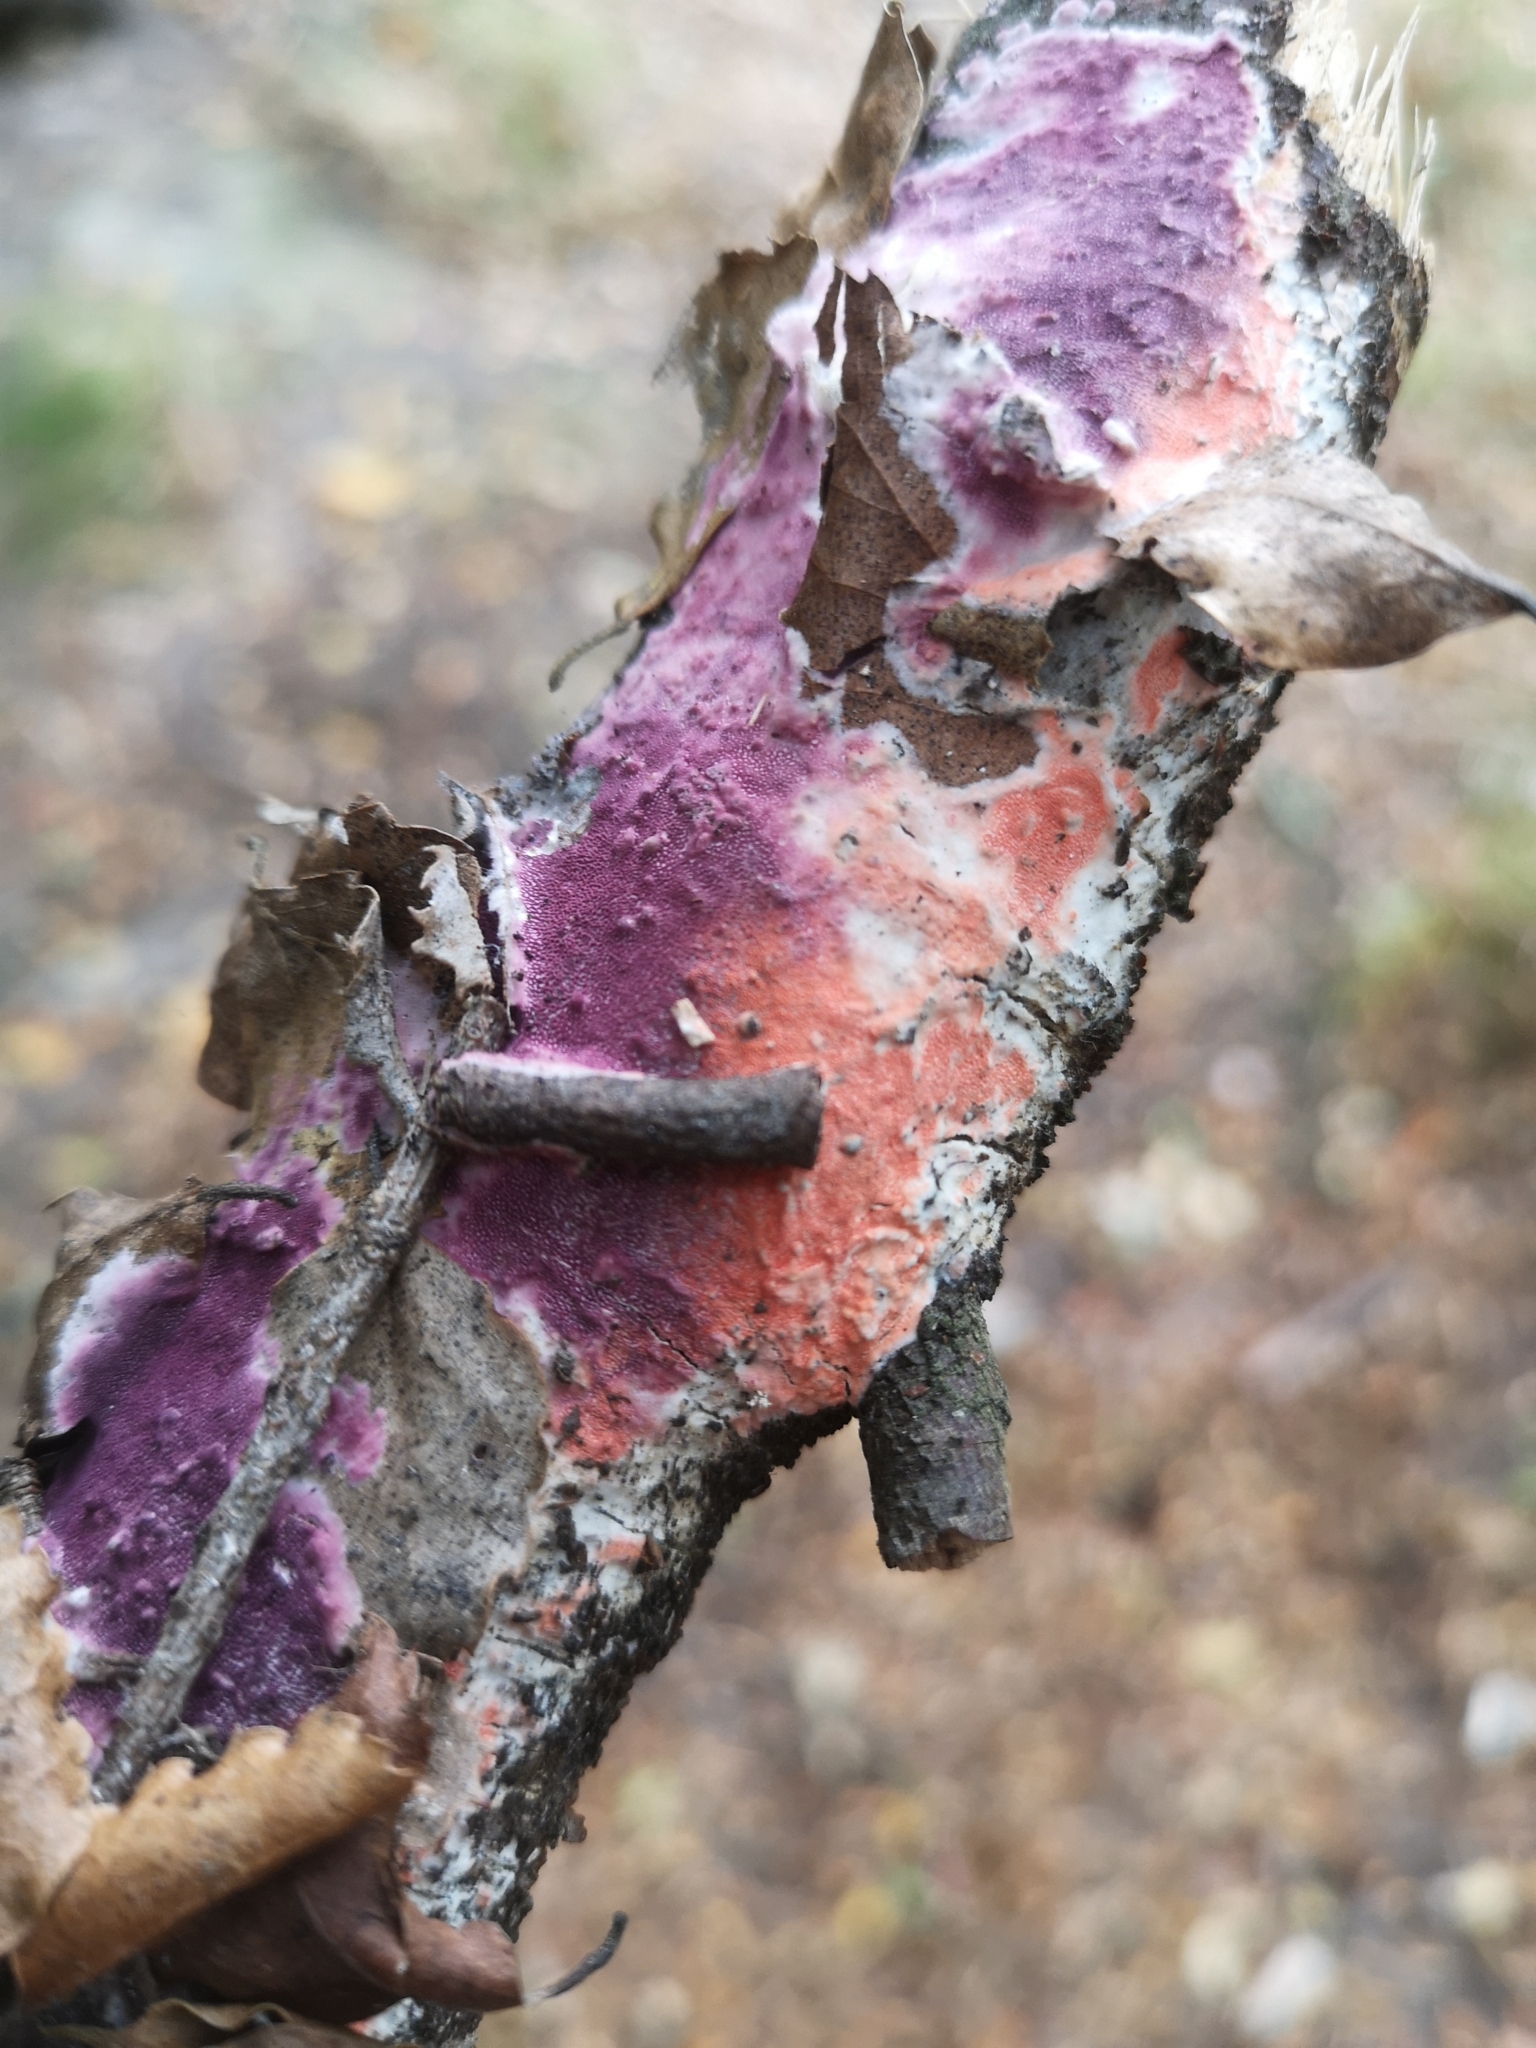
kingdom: Fungi
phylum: Basidiomycota
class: Agaricomycetes
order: Polyporales
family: Irpicaceae
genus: Byssomerulius
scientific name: Byssomerulius psittacinus
